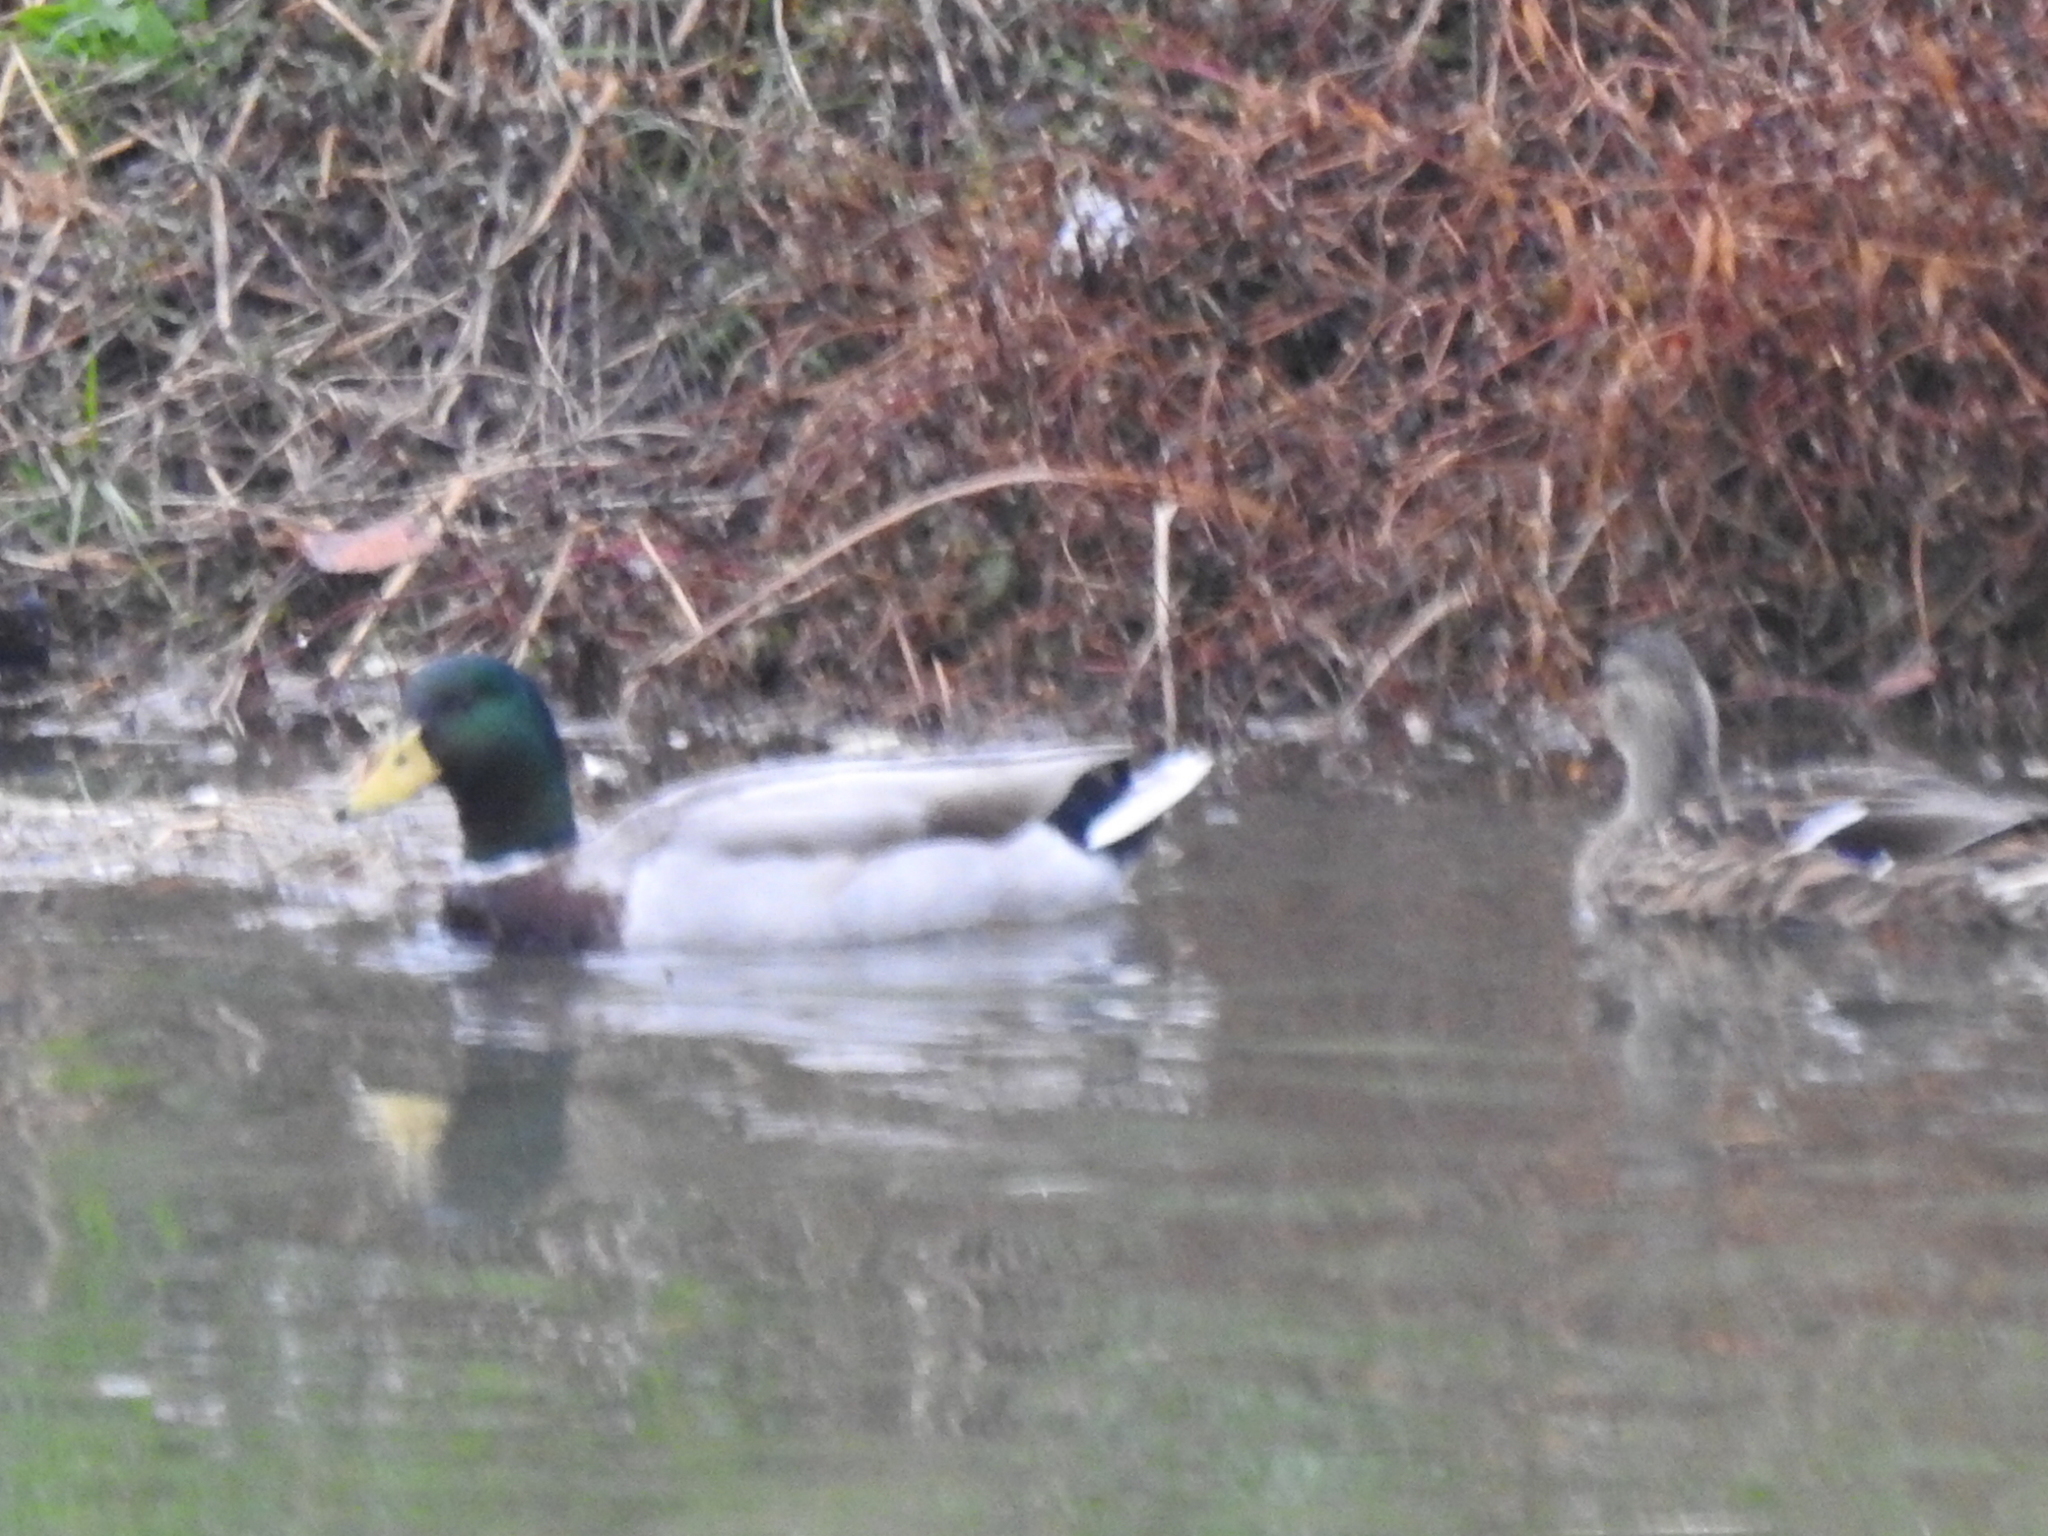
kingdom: Animalia
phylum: Chordata
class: Aves
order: Anseriformes
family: Anatidae
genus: Anas
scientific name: Anas platyrhynchos
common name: Mallard
